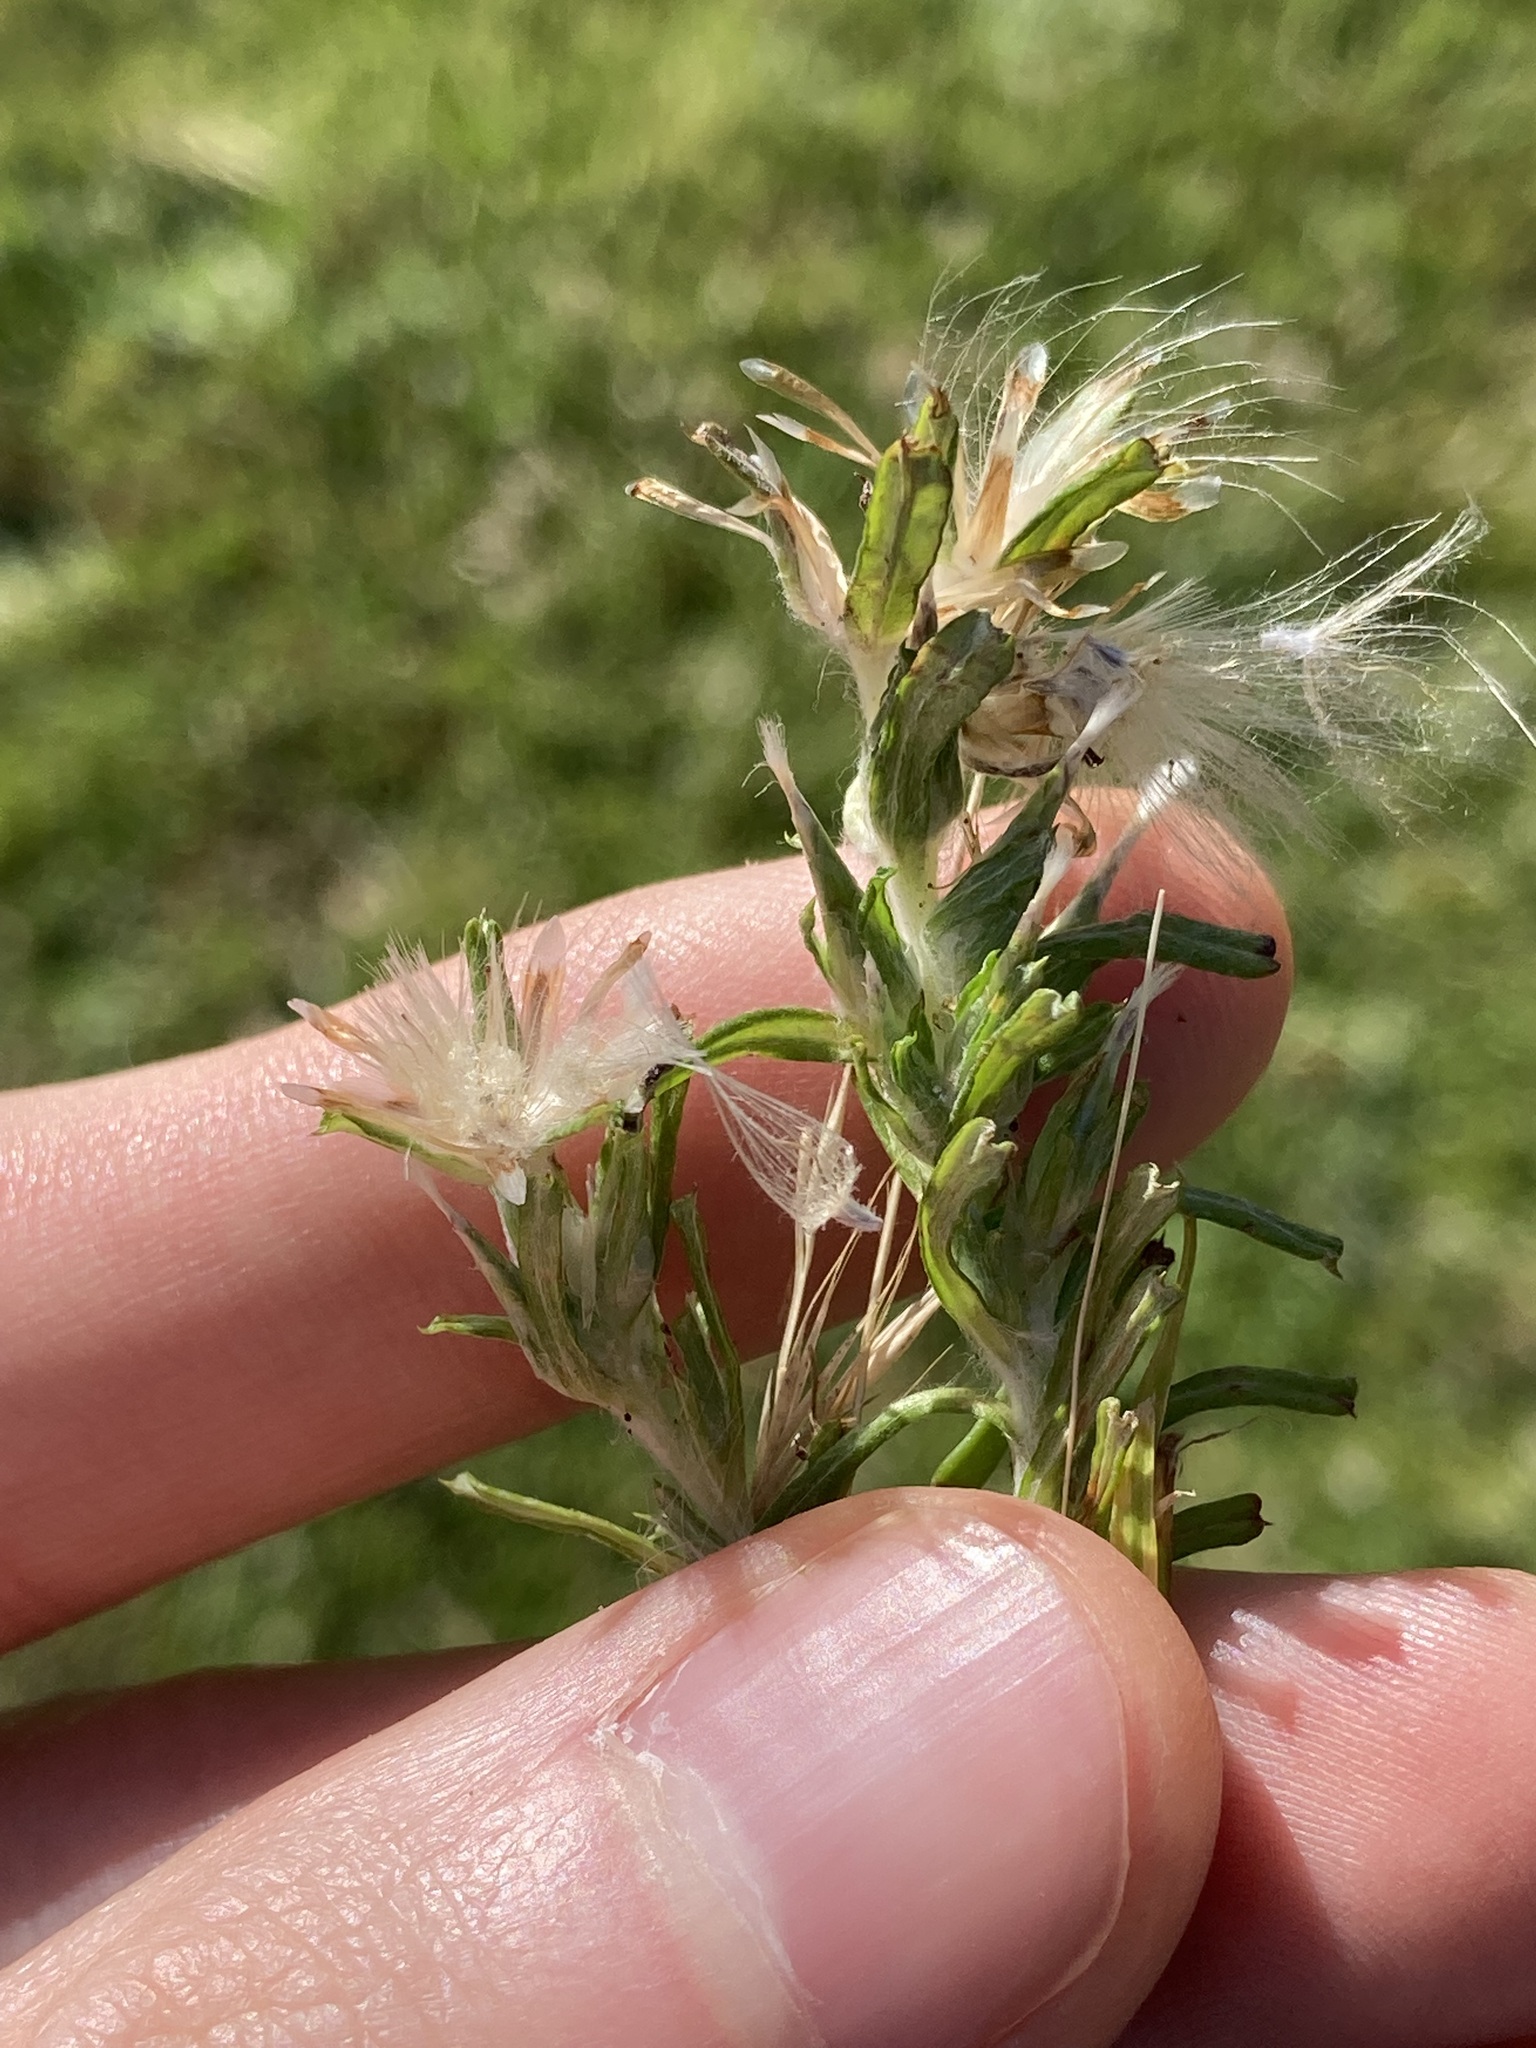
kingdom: Plantae
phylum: Tracheophyta
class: Magnoliopsida
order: Asterales
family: Asteraceae
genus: Facelis
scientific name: Facelis retusa
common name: Annual trampweed
